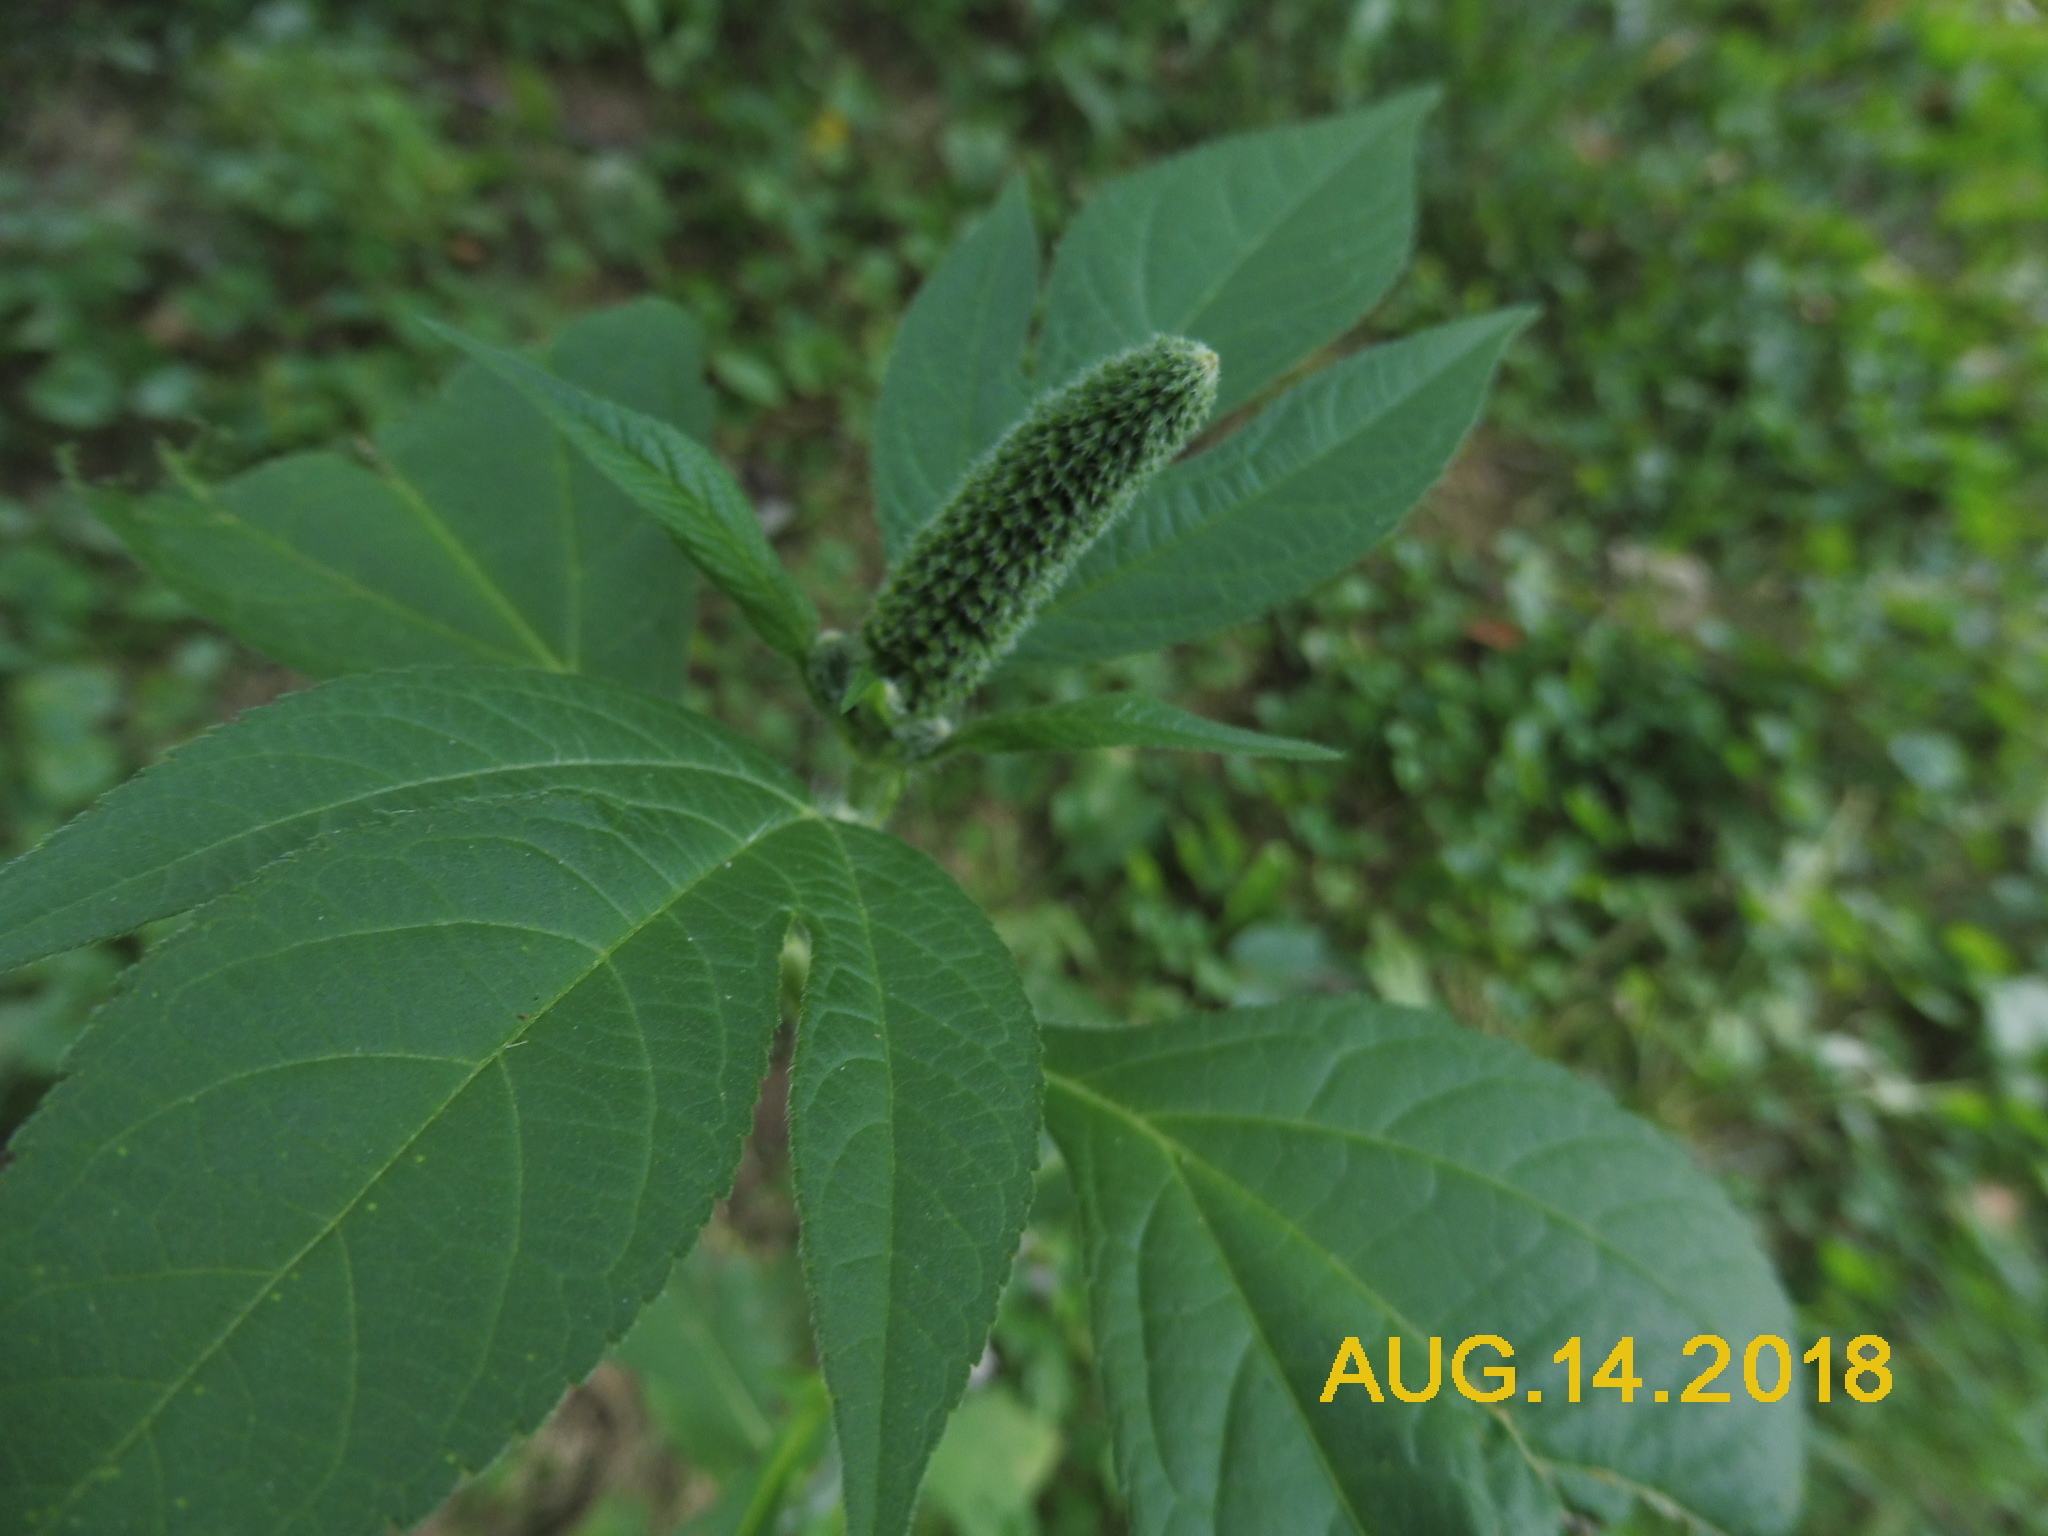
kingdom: Plantae
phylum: Tracheophyta
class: Magnoliopsida
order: Asterales
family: Asteraceae
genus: Ambrosia
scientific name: Ambrosia trifida
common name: Giant ragweed
